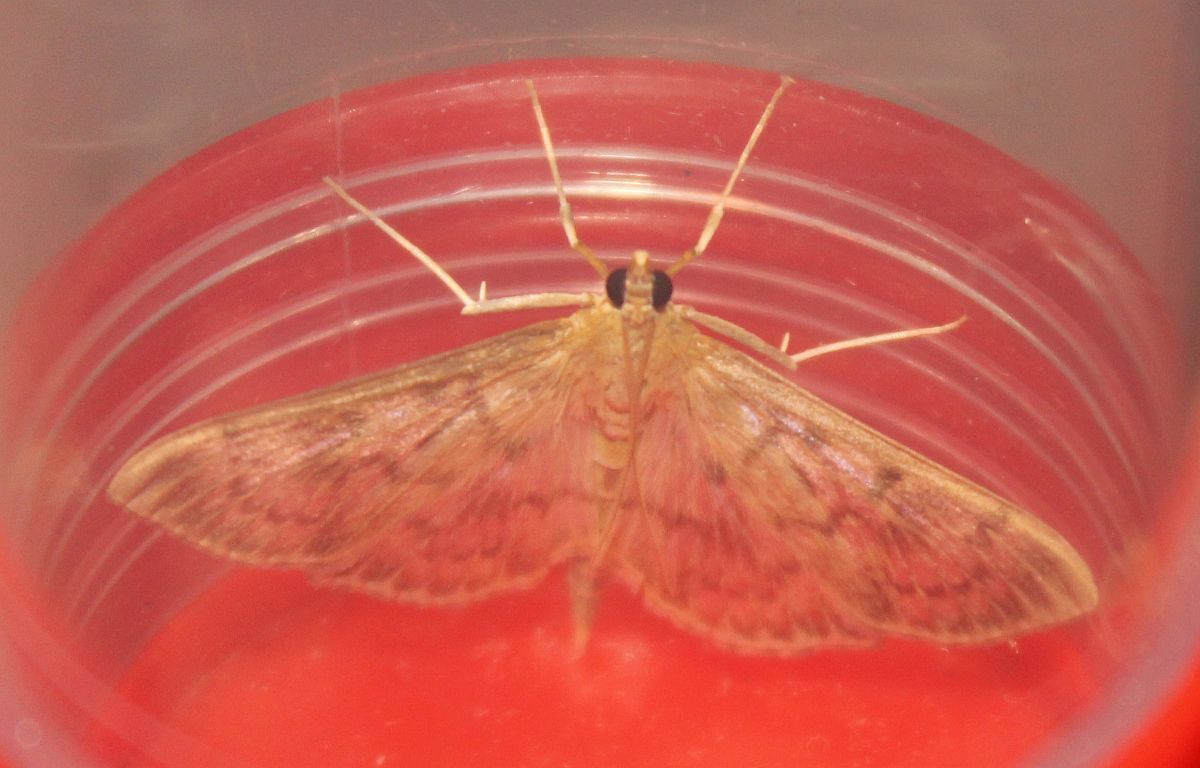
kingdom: Animalia
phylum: Arthropoda
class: Insecta
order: Lepidoptera
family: Crambidae
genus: Patania
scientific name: Patania ruralis
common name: Mother of pearl
